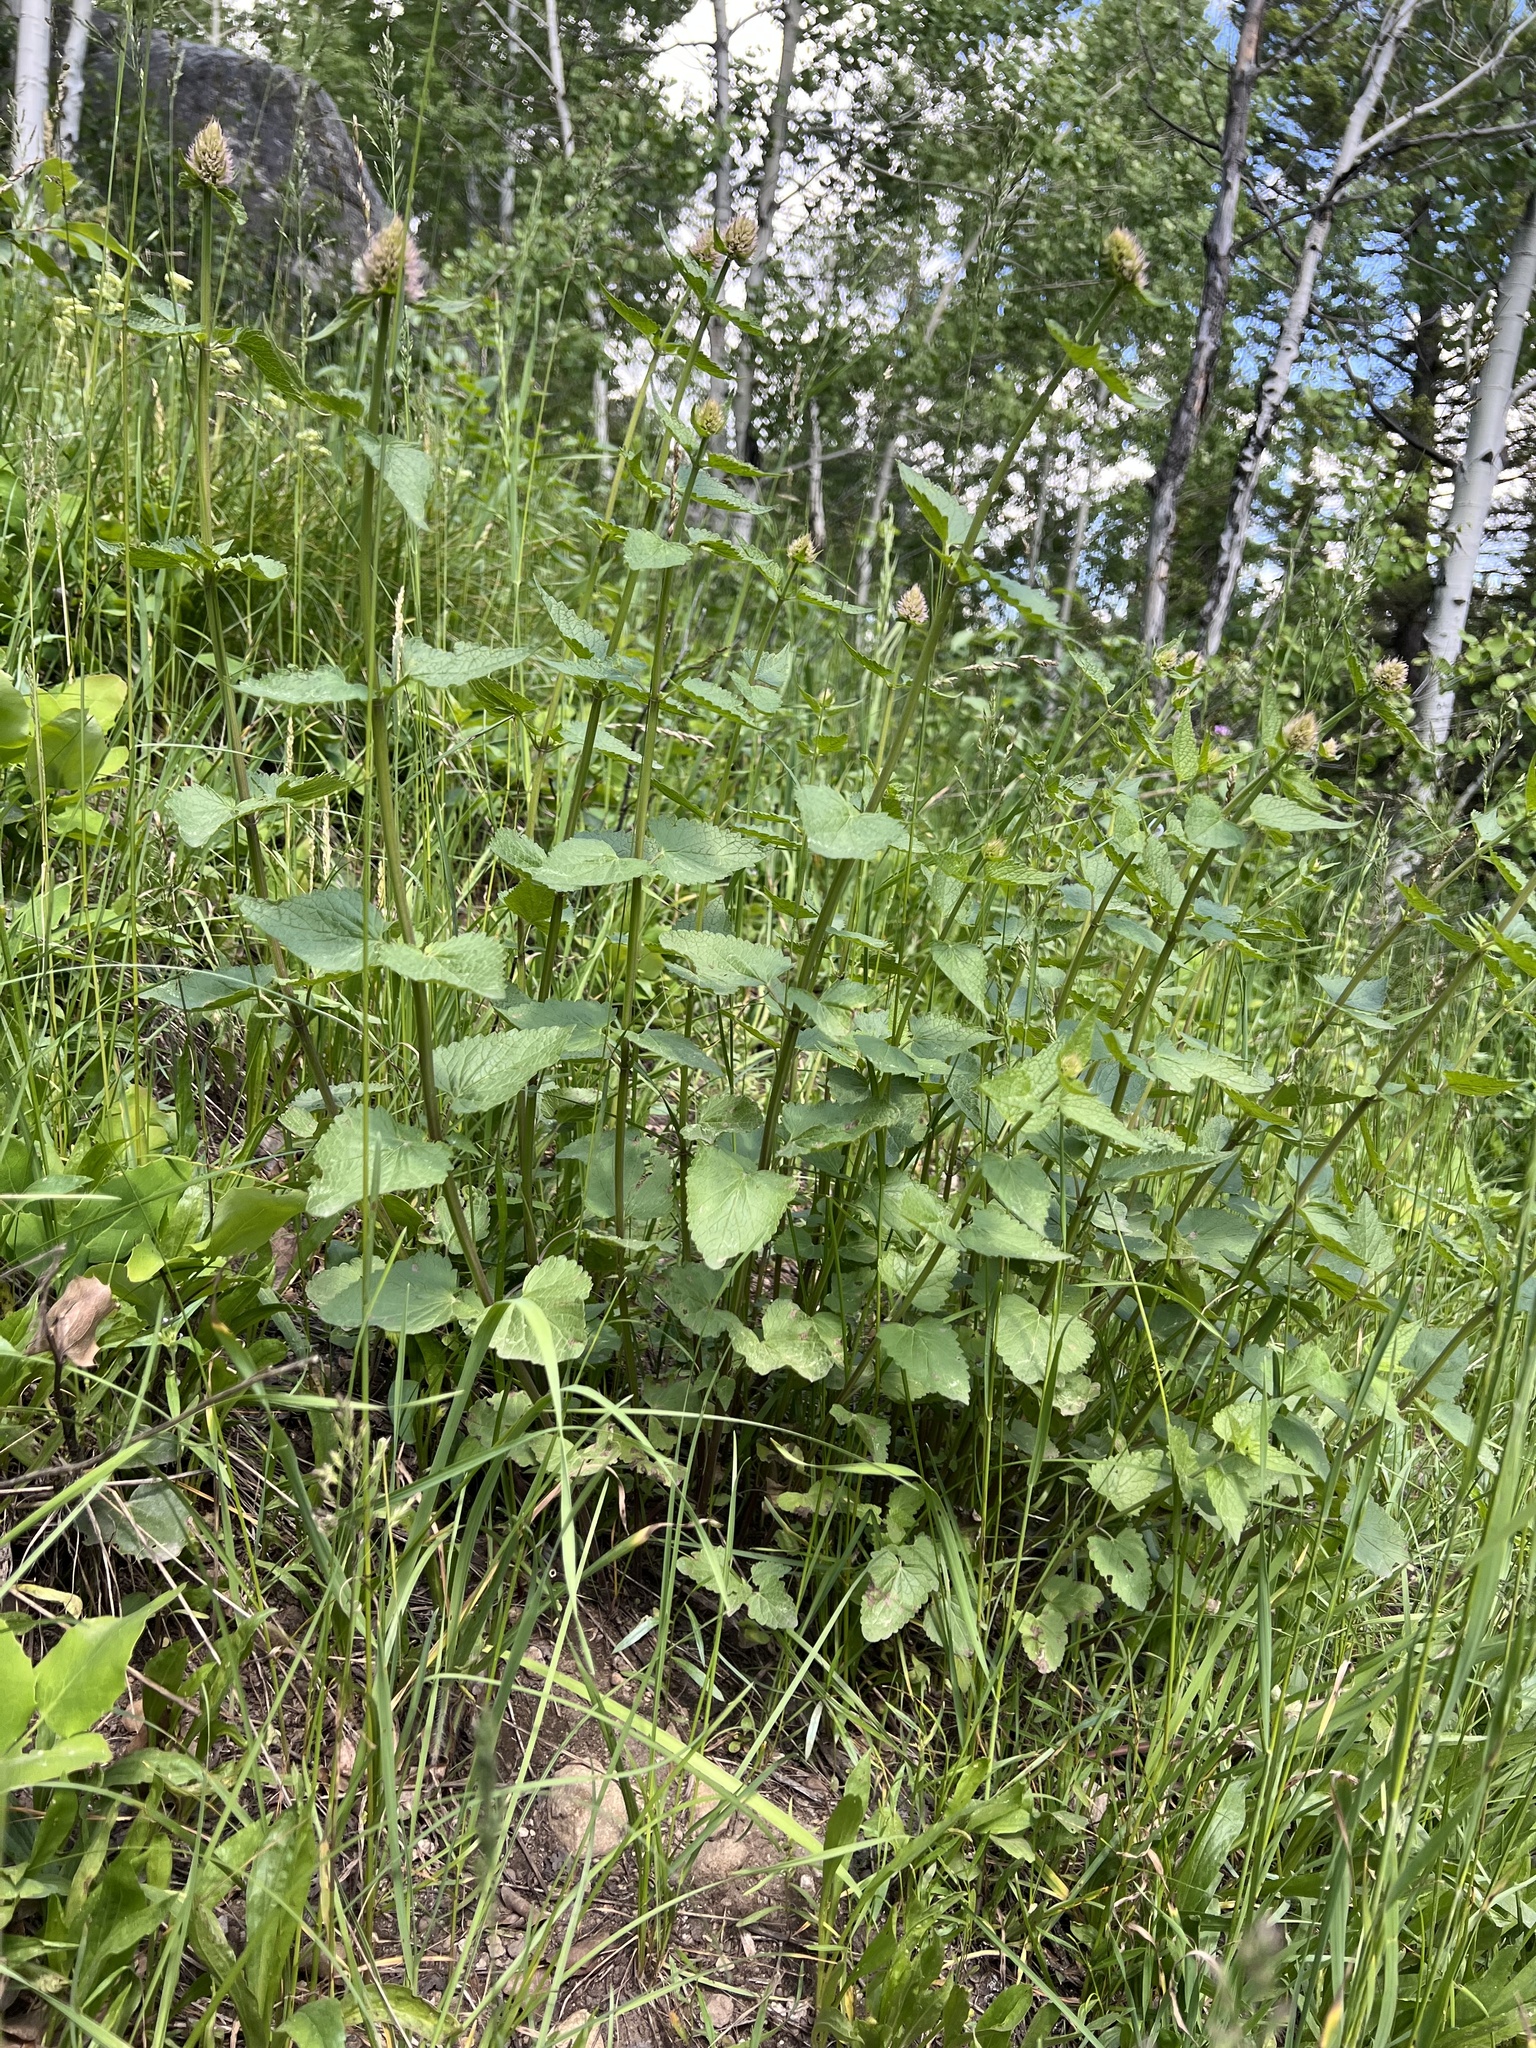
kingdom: Plantae
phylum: Tracheophyta
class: Magnoliopsida
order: Lamiales
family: Lamiaceae
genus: Agastache
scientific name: Agastache urticifolia
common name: Horsemint giant hyssop
